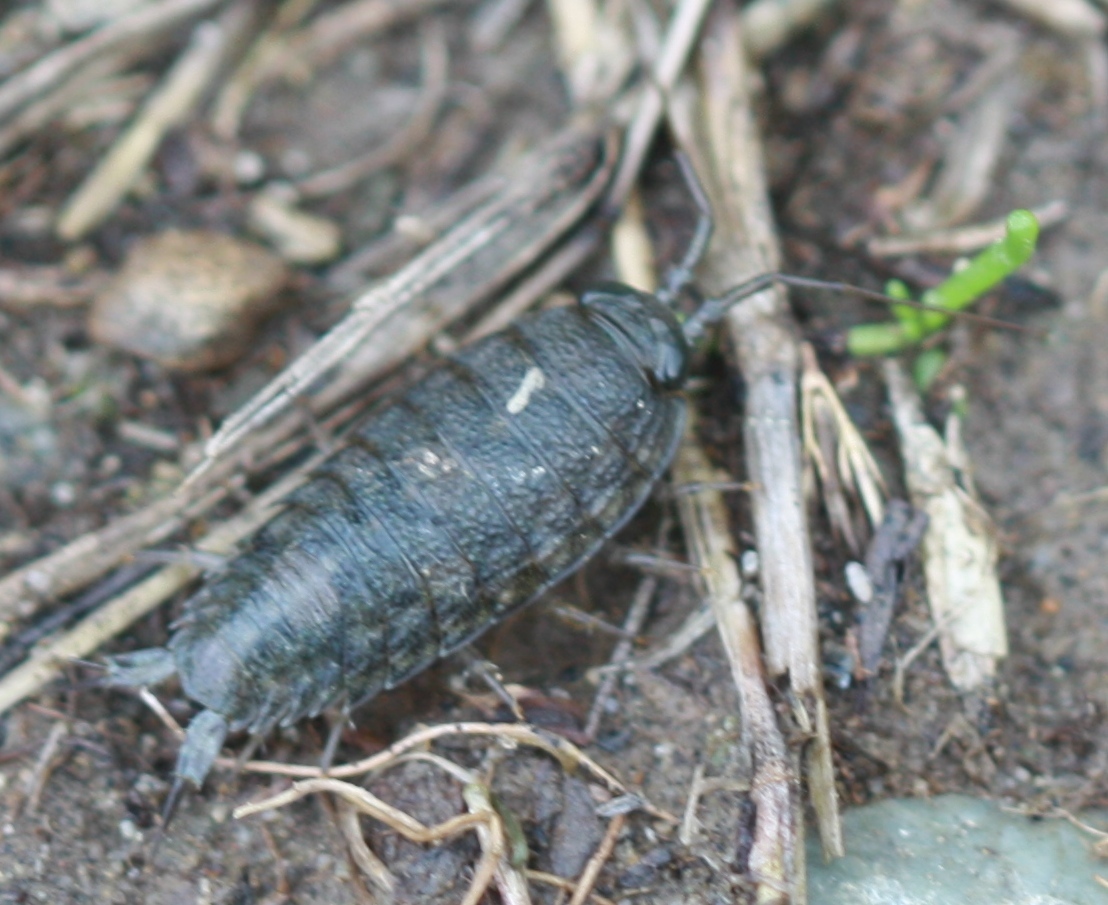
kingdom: Animalia
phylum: Arthropoda
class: Malacostraca
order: Isopoda
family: Ligiidae
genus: Ligia
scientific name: Ligia occidentalis
